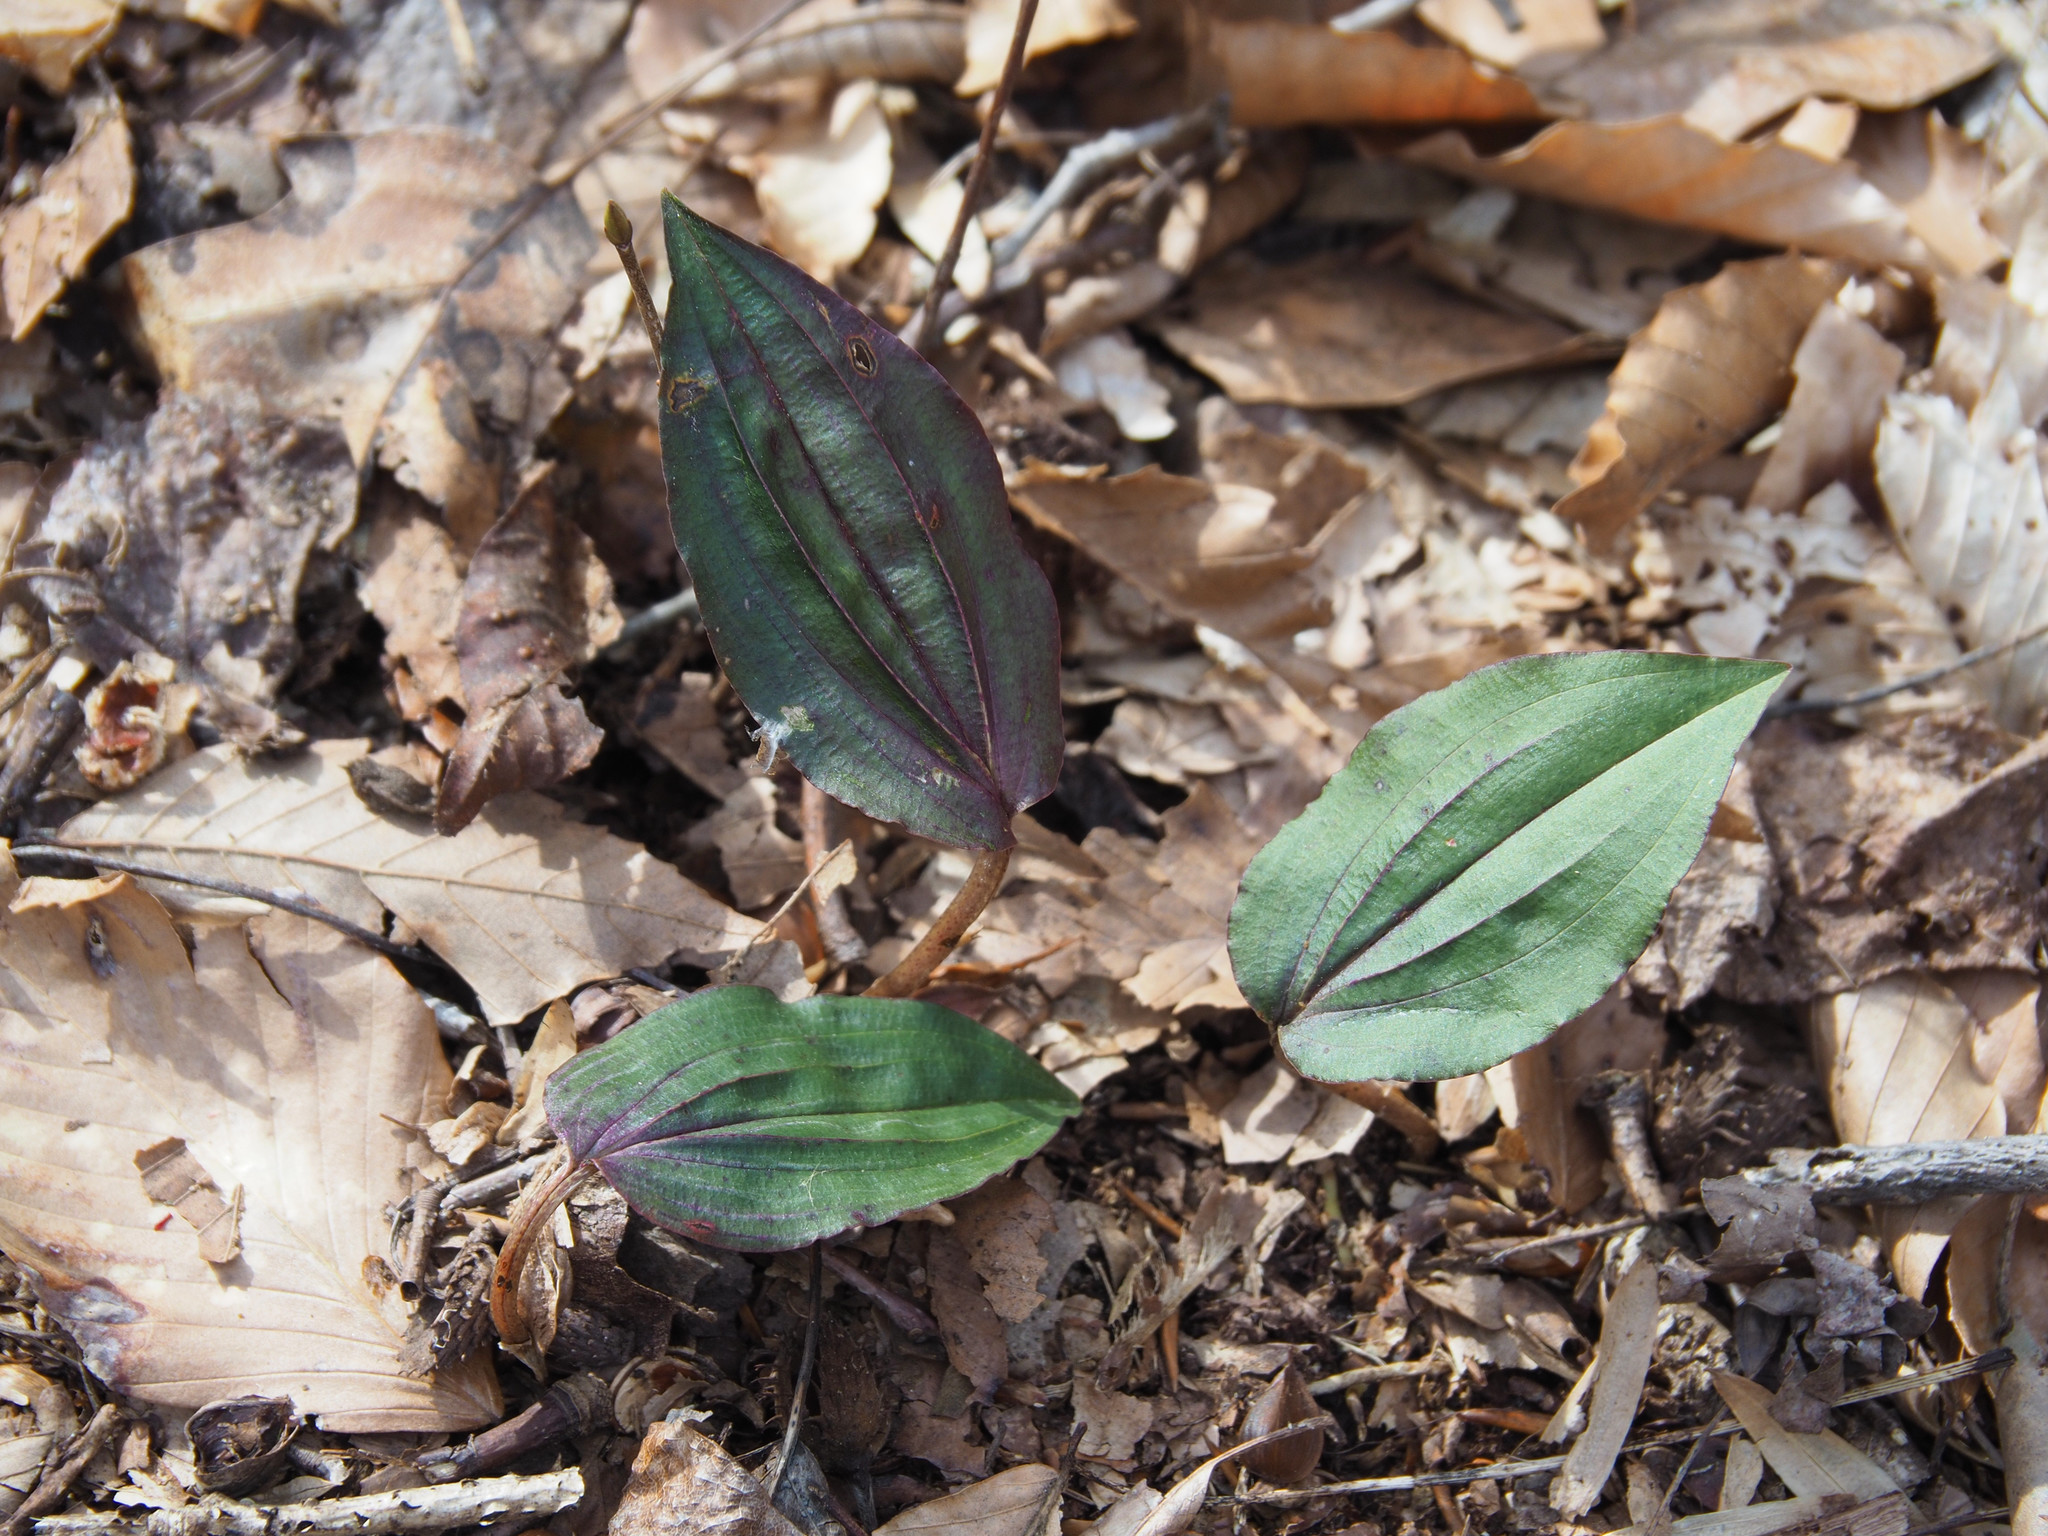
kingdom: Plantae
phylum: Tracheophyta
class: Liliopsida
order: Asparagales
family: Orchidaceae
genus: Tipularia
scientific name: Tipularia discolor
